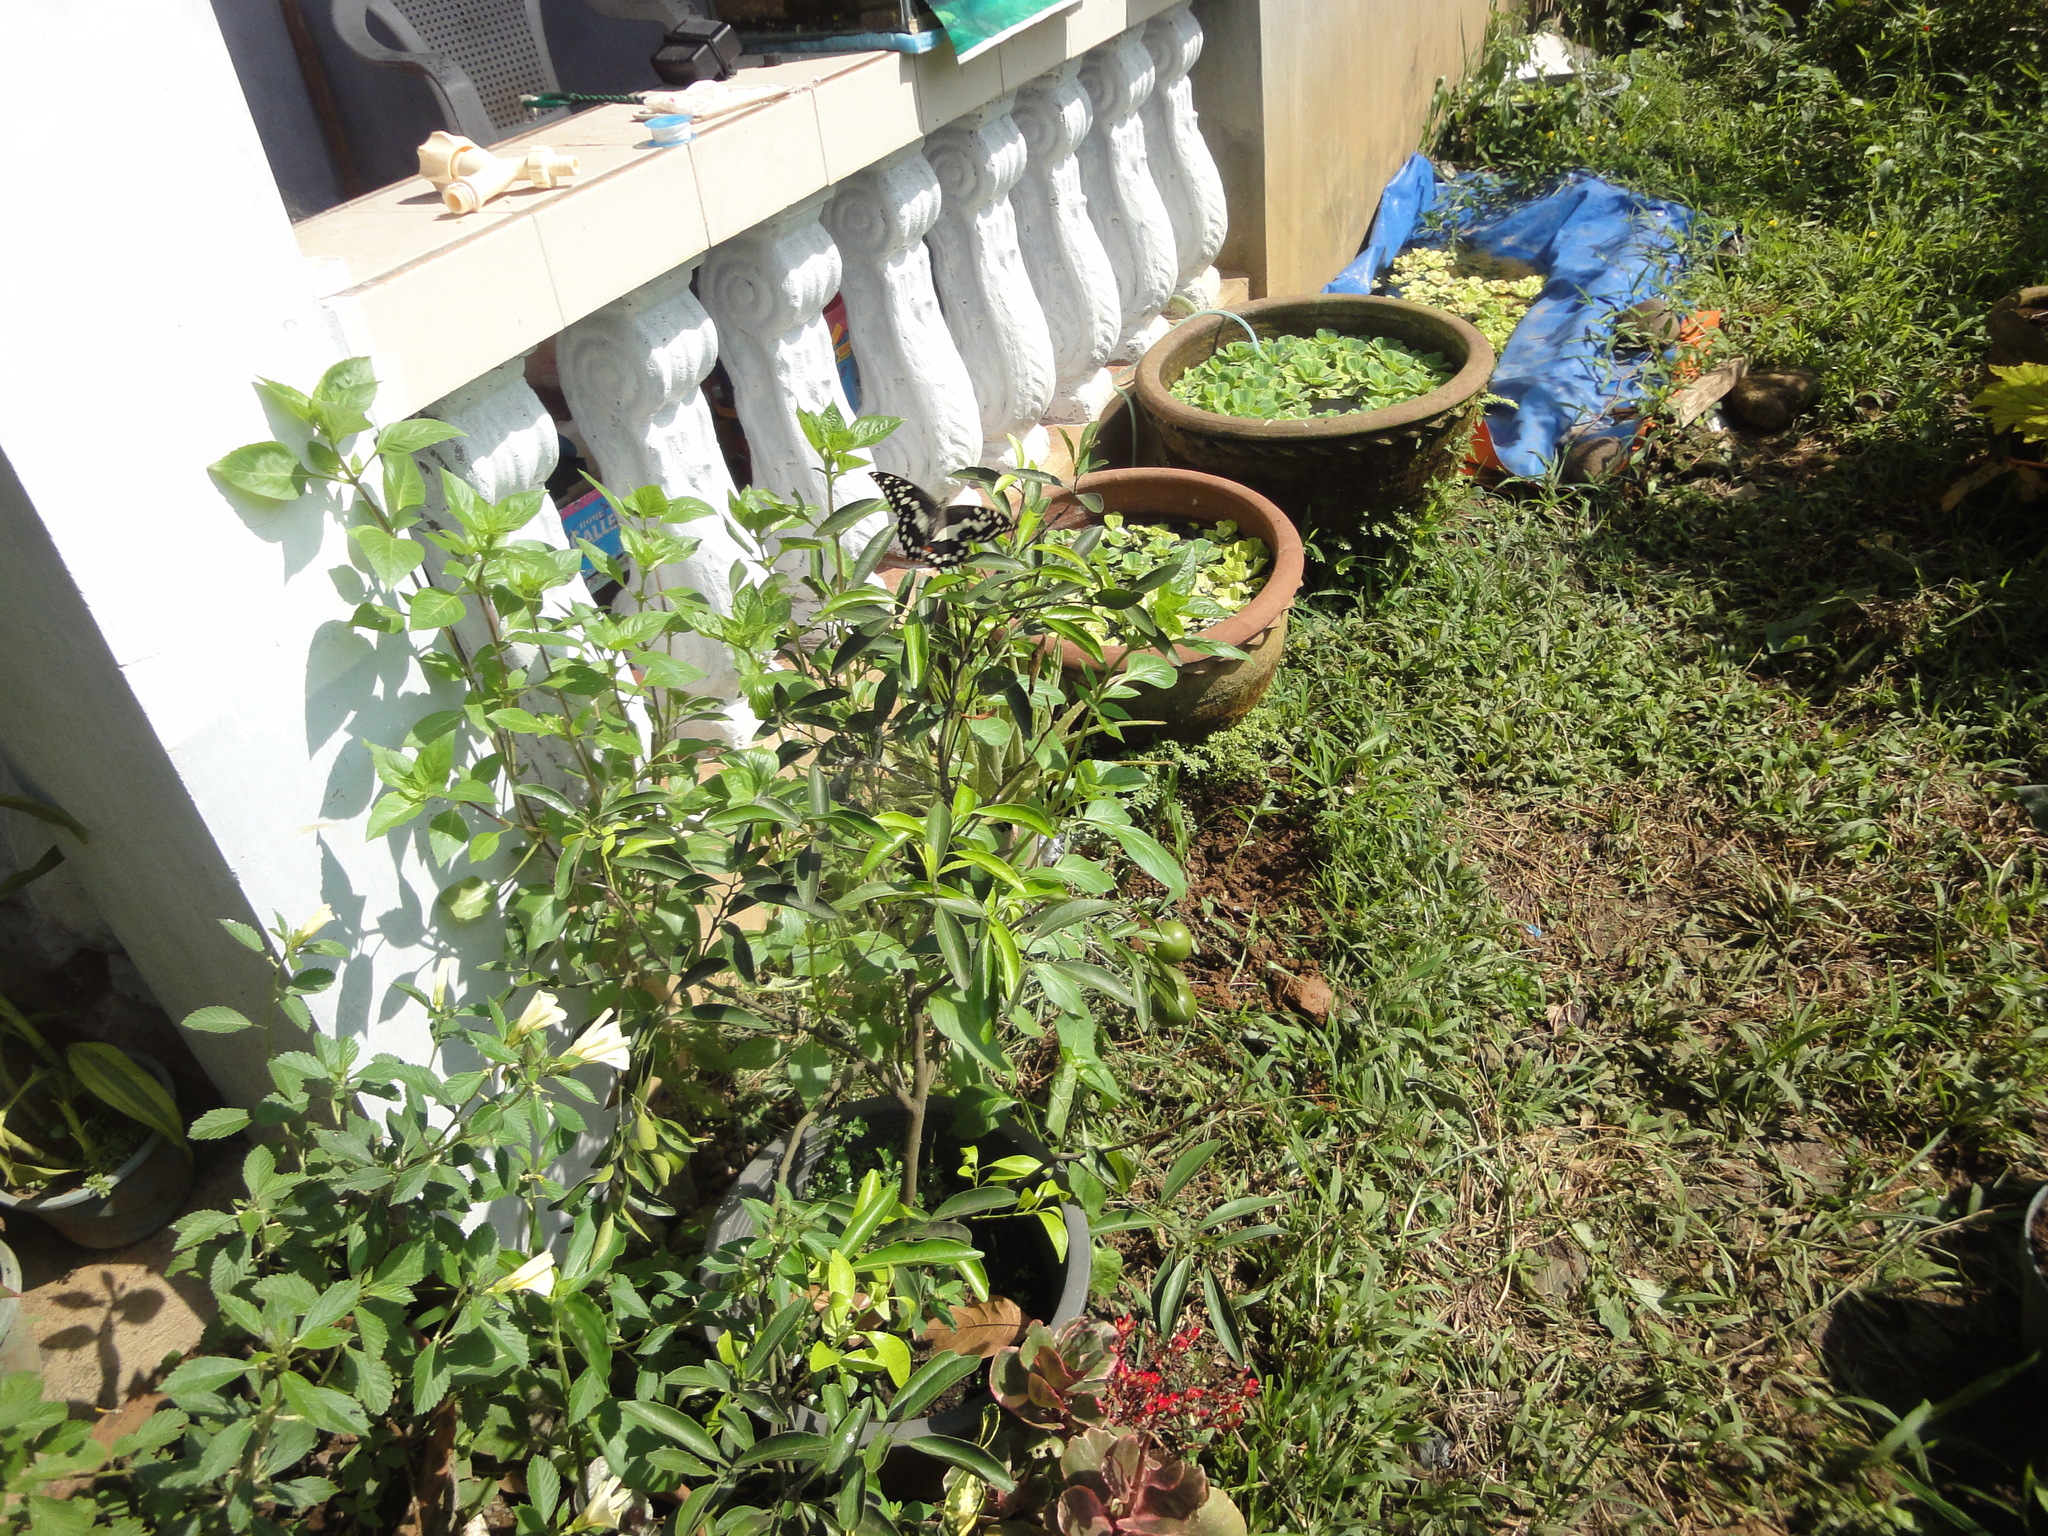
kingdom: Animalia
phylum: Arthropoda
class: Insecta
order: Lepidoptera
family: Papilionidae
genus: Papilio
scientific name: Papilio demoleus
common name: Lime butterfly
